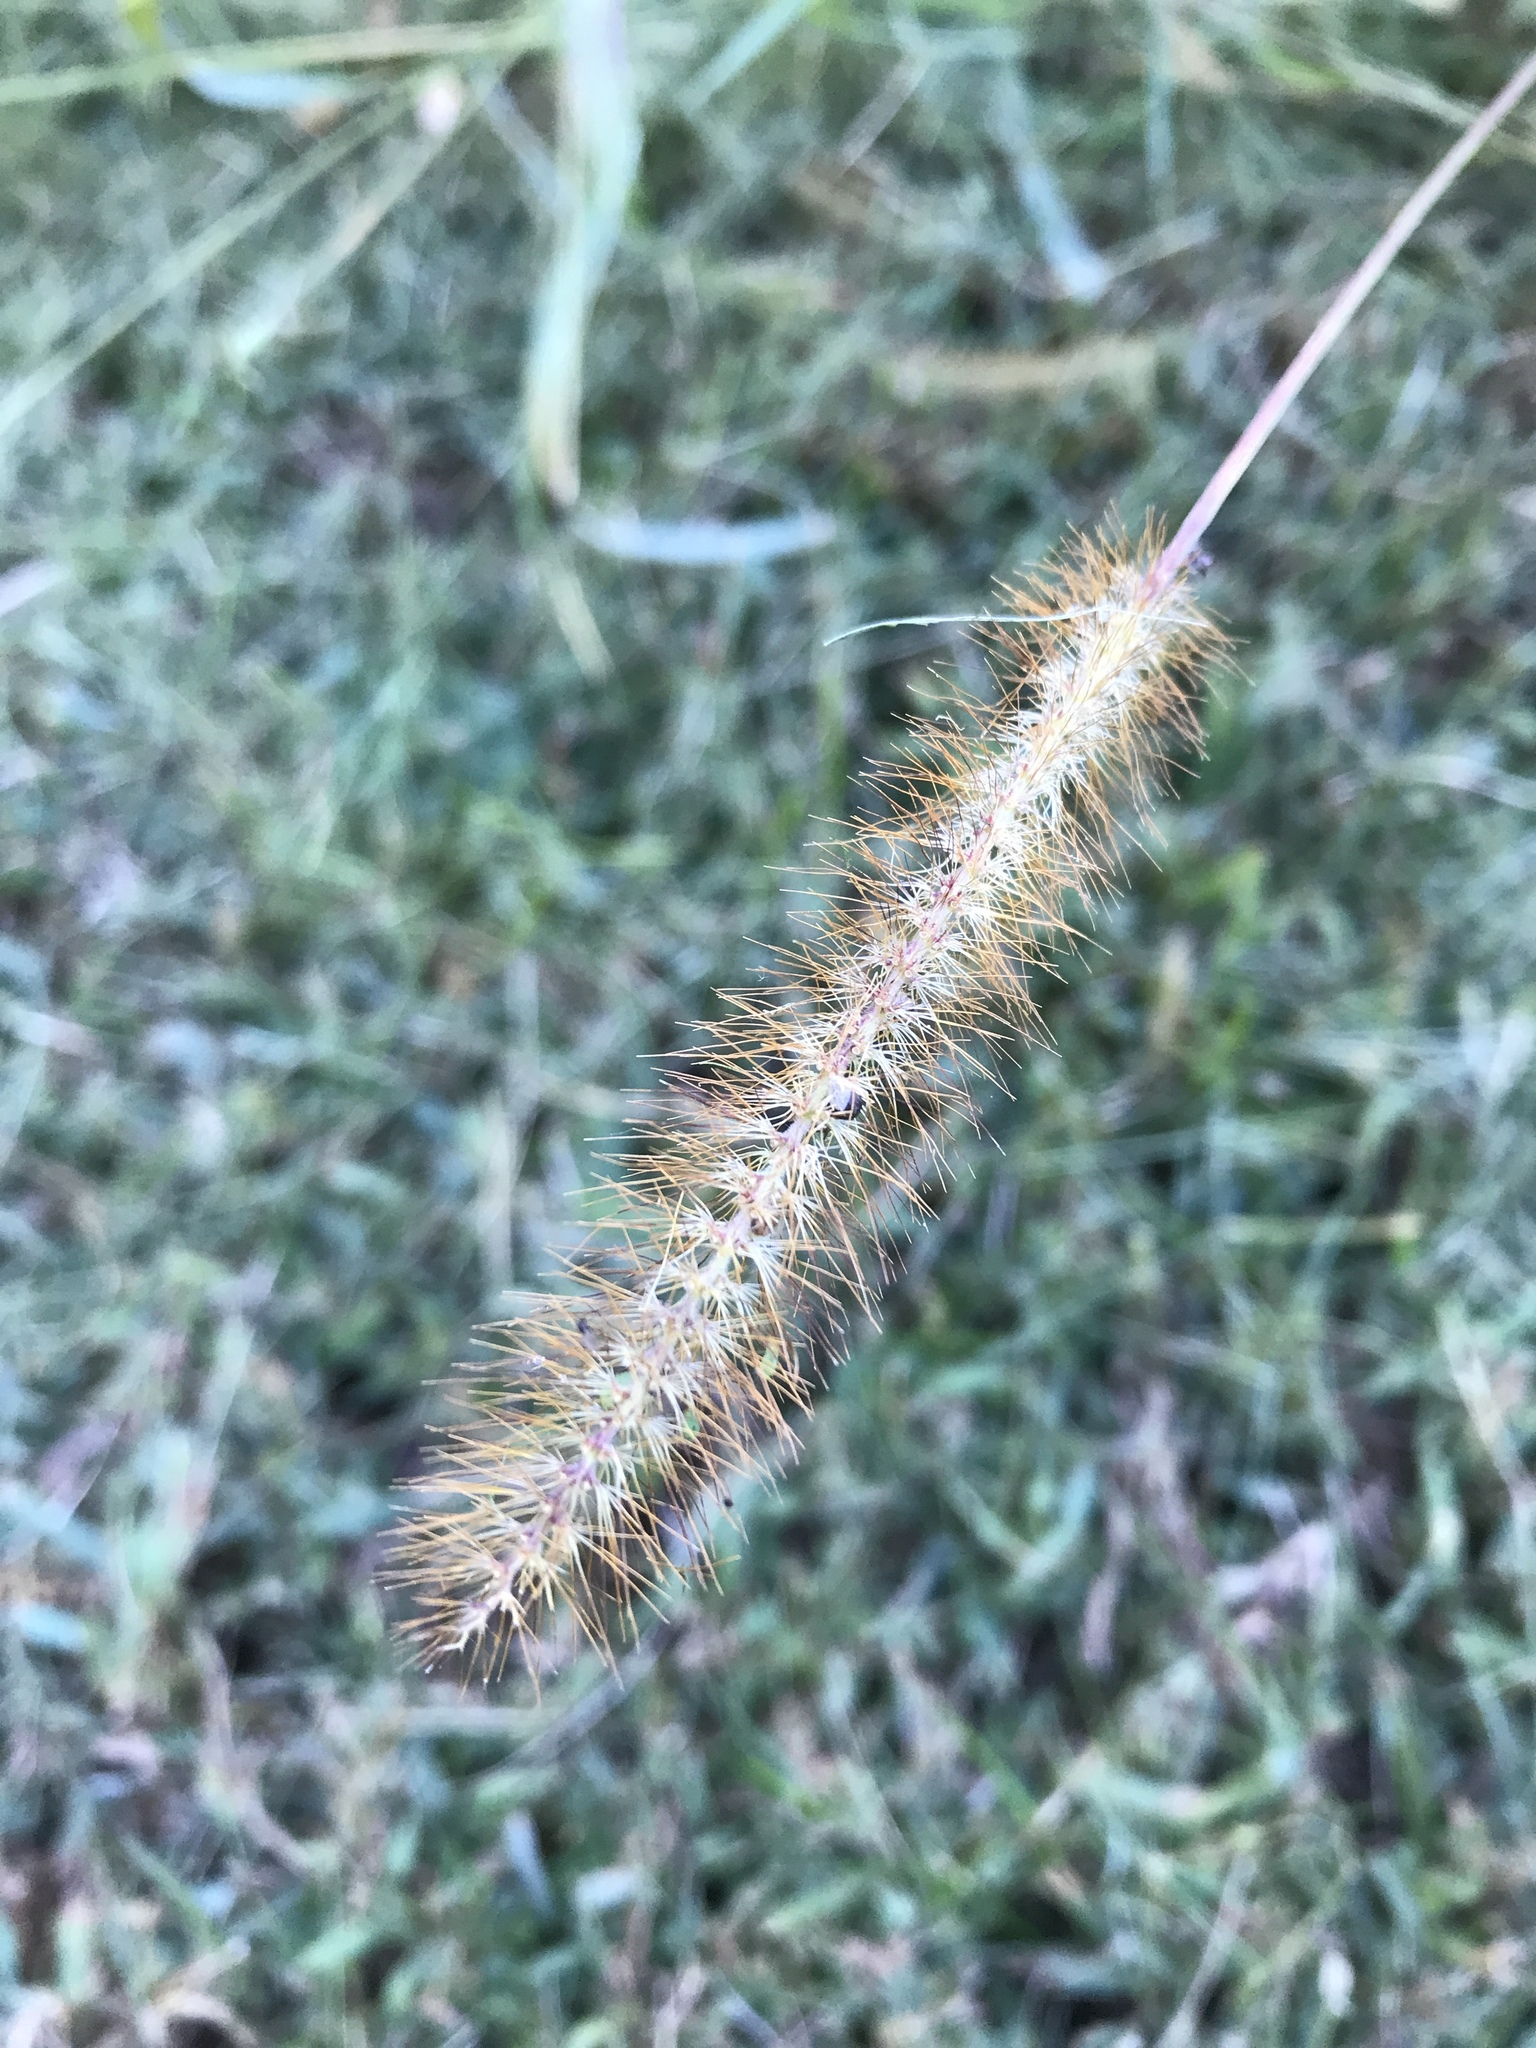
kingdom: Plantae
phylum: Tracheophyta
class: Liliopsida
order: Poales
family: Poaceae
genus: Setaria
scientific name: Setaria pumila
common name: Yellow bristle-grass
